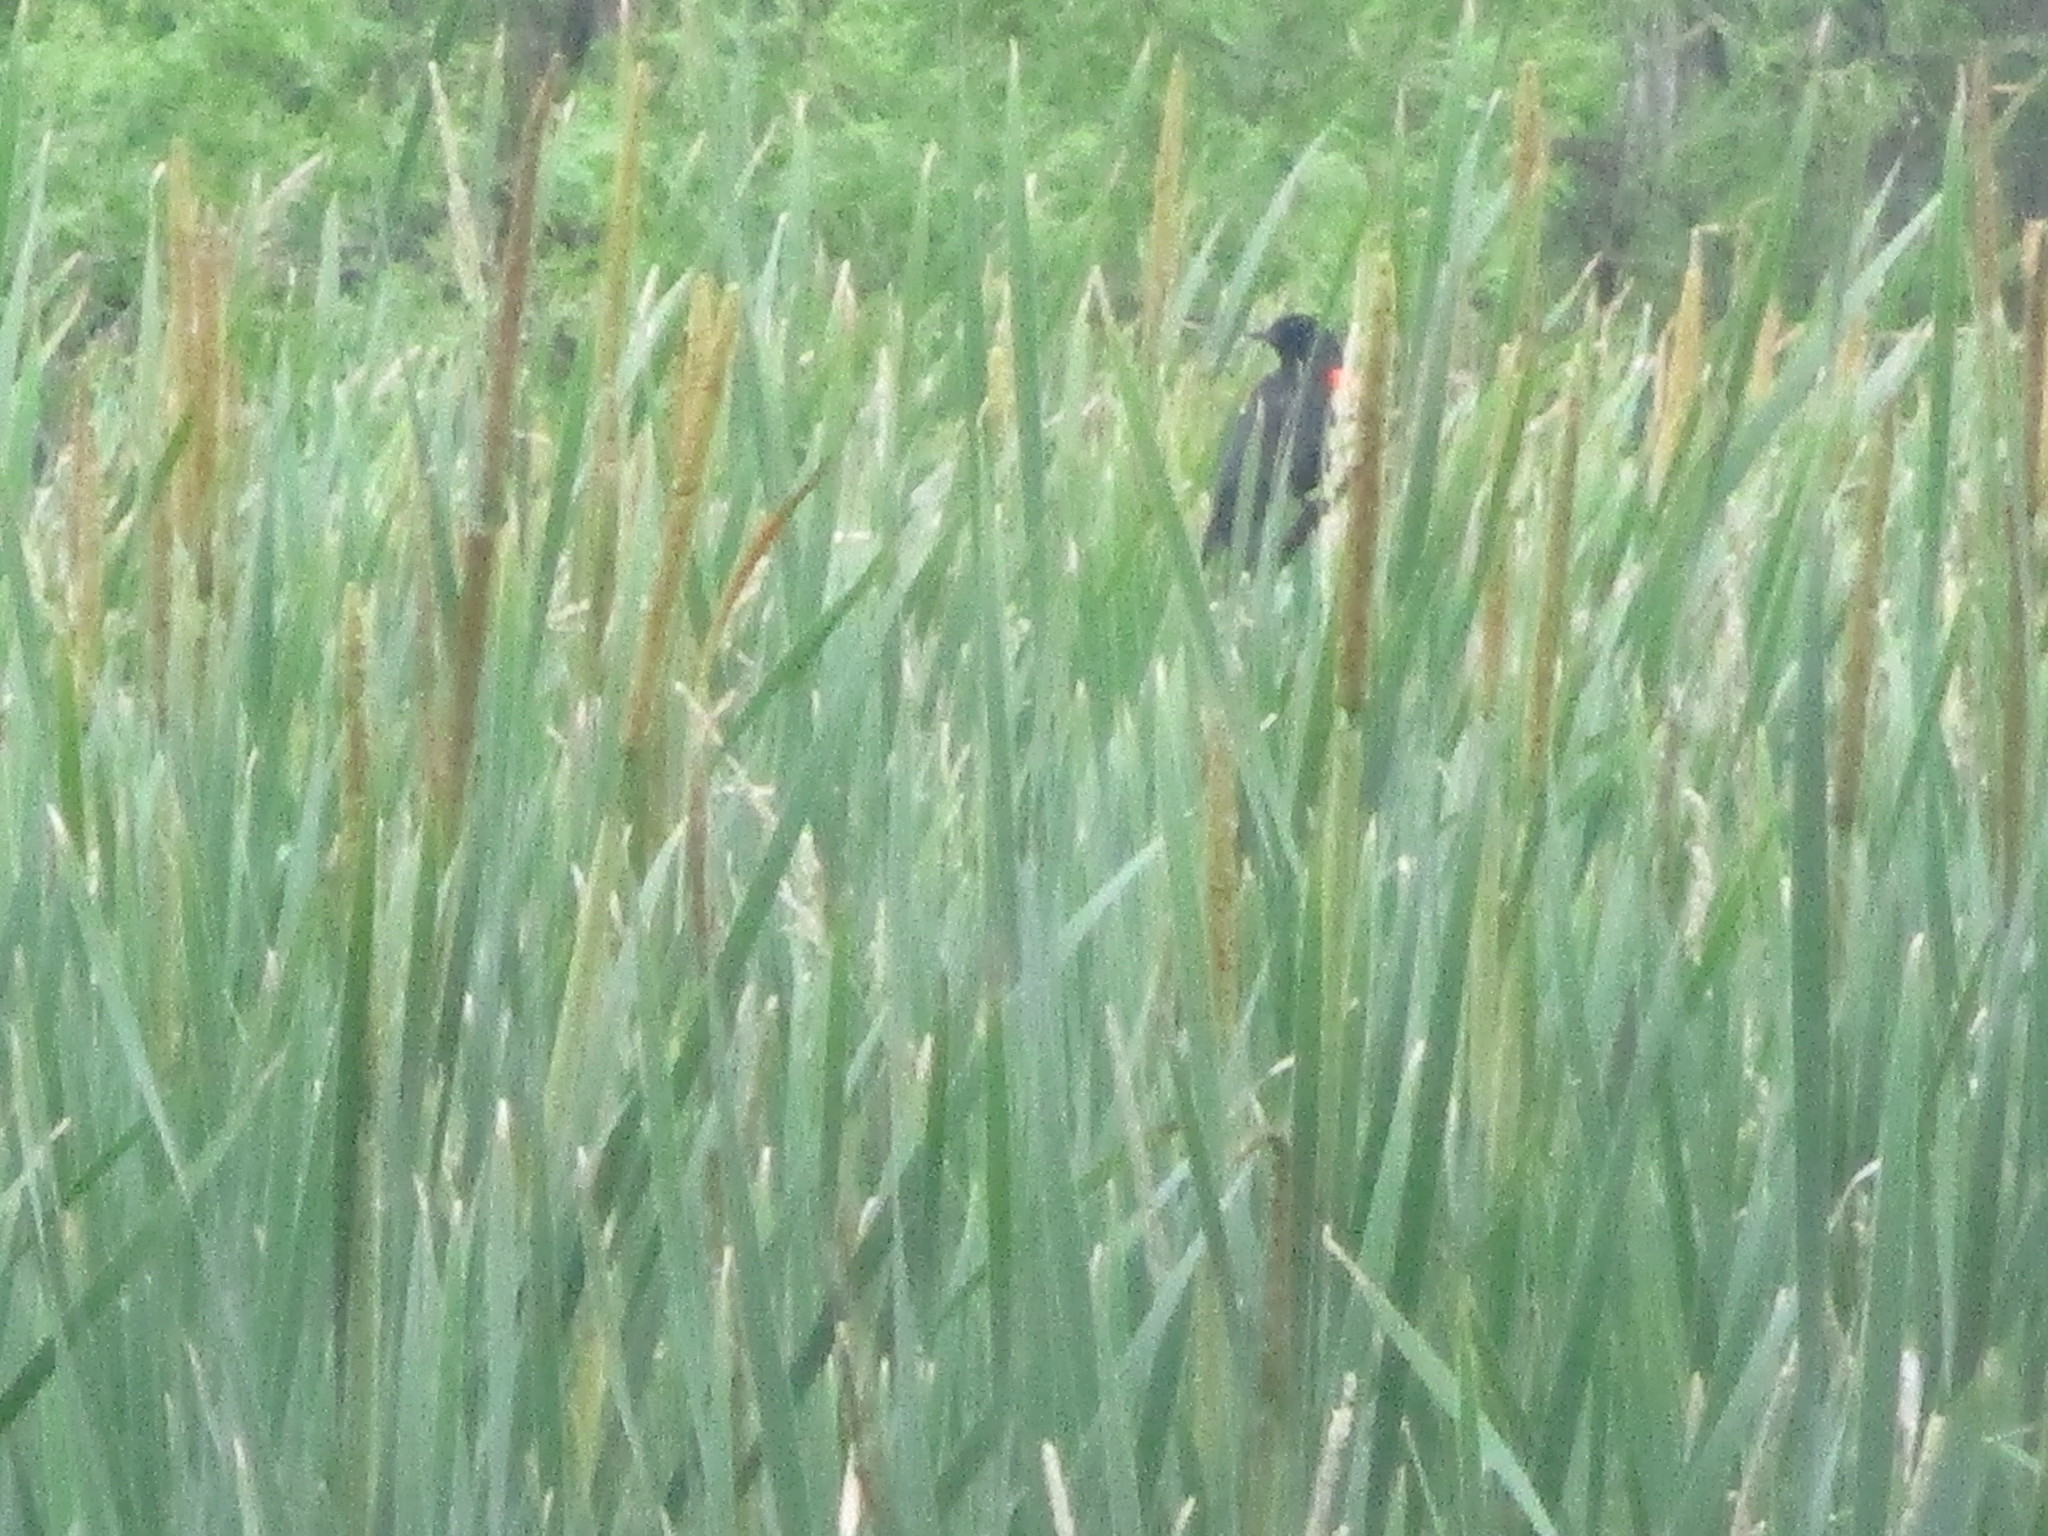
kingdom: Animalia
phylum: Chordata
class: Aves
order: Passeriformes
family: Icteridae
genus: Agelaius
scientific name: Agelaius phoeniceus
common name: Red-winged blackbird
